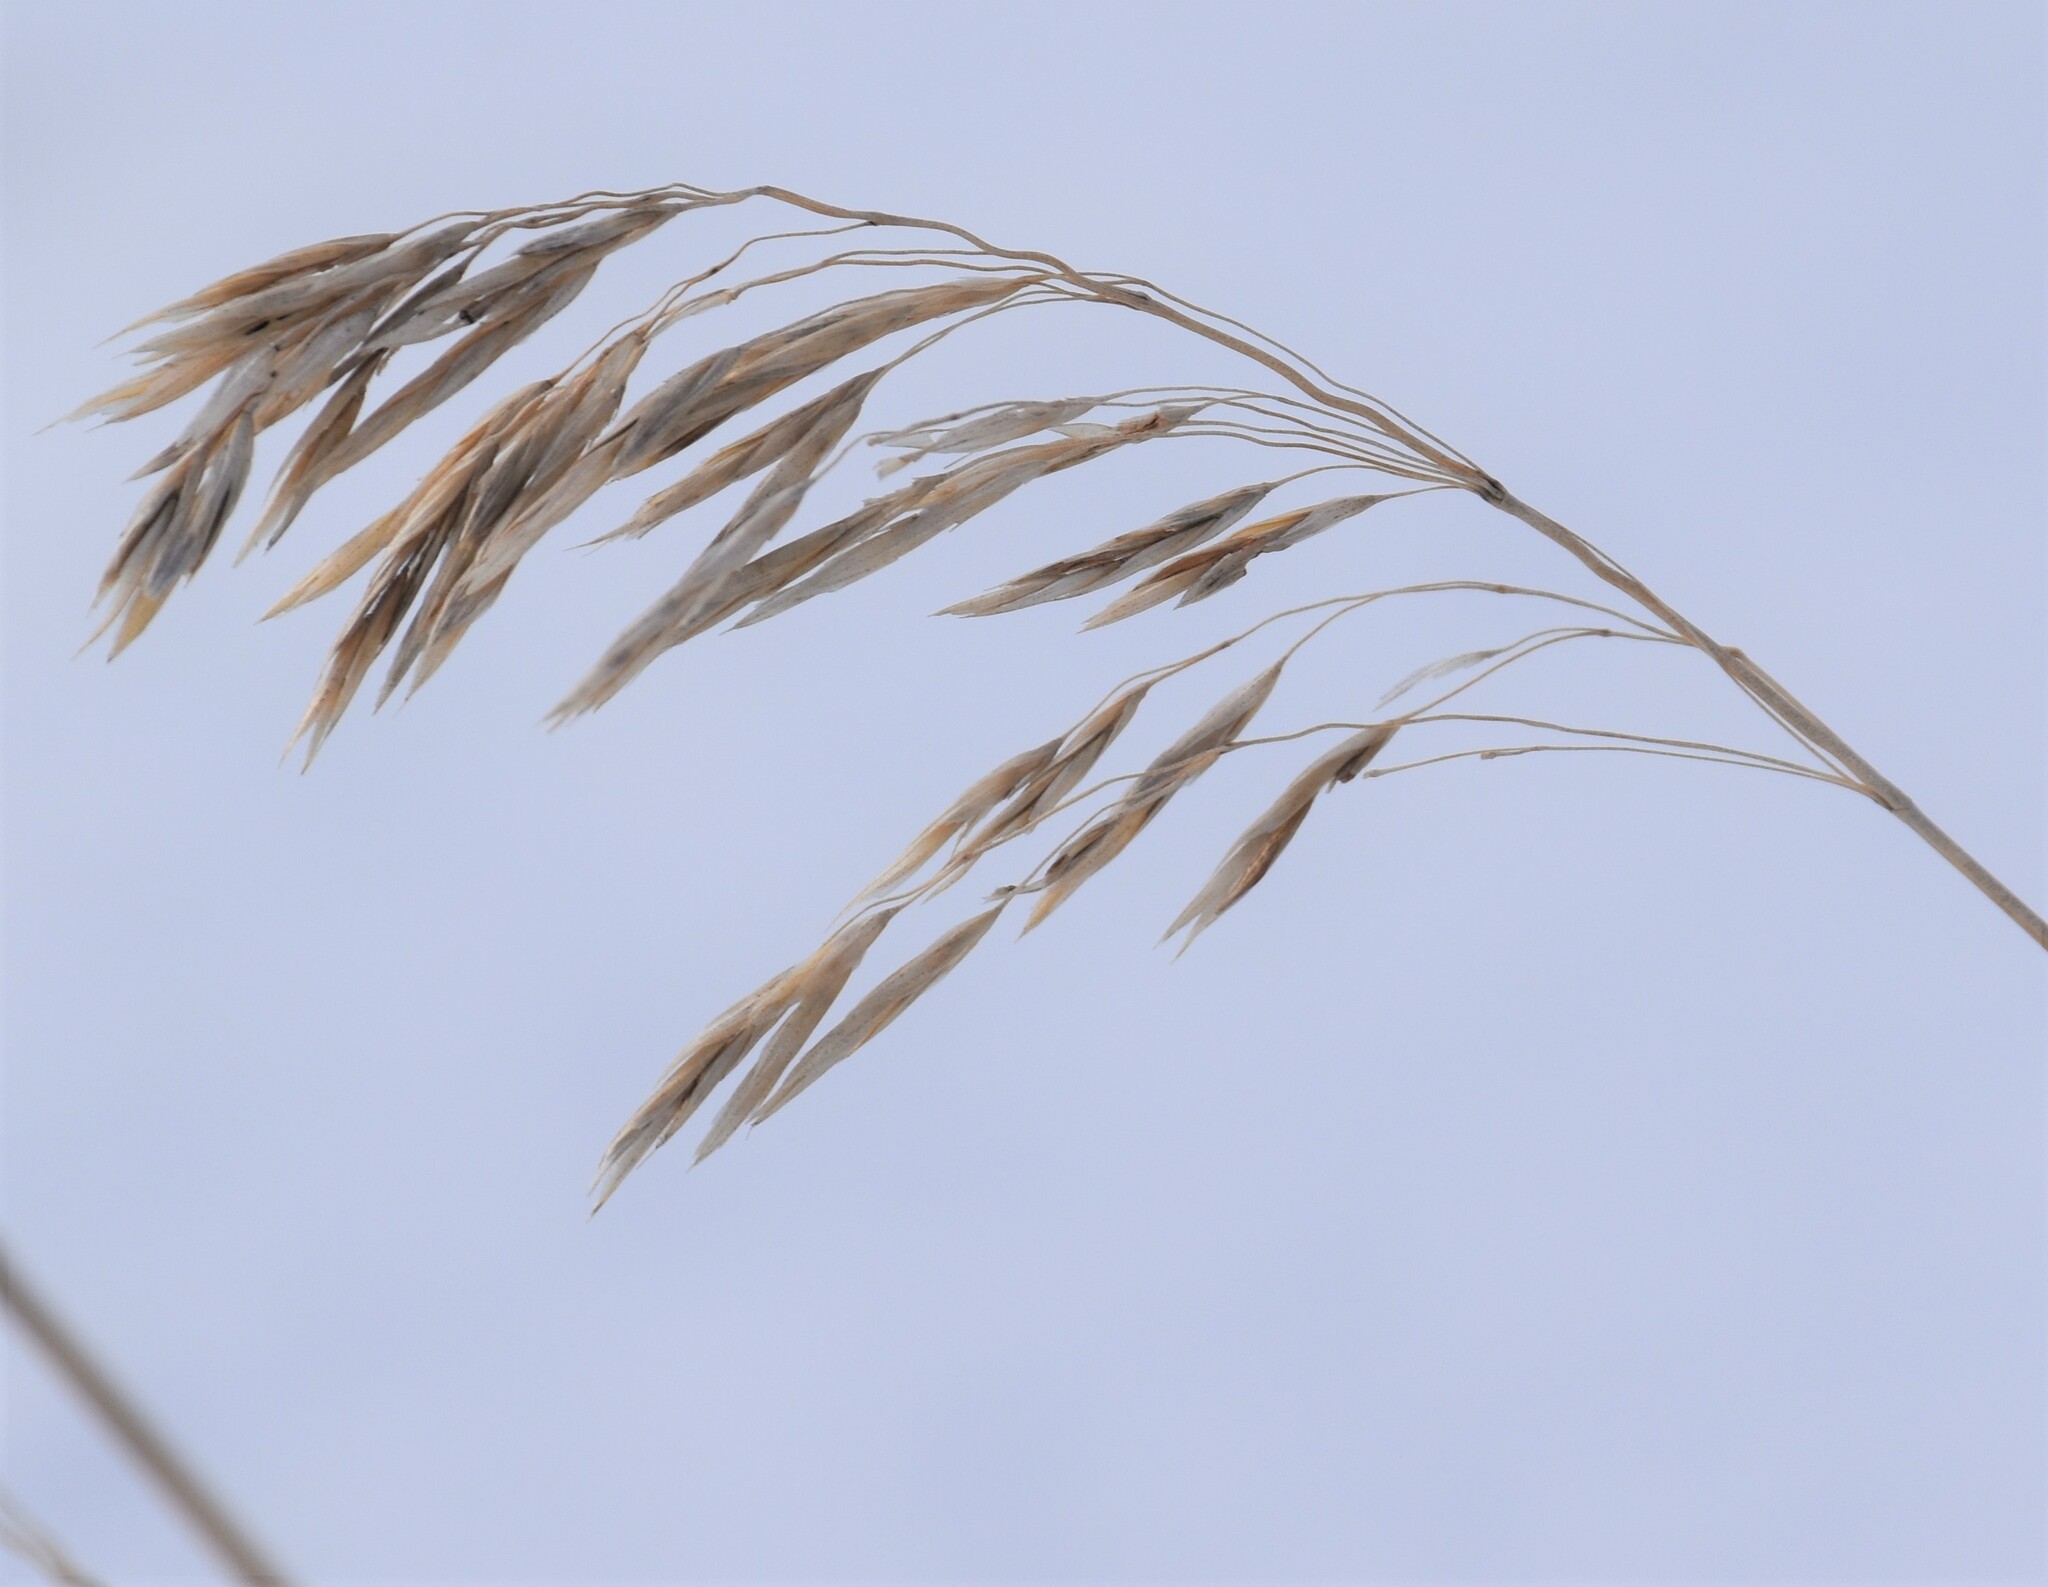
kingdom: Plantae
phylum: Tracheophyta
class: Liliopsida
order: Poales
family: Poaceae
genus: Bromus
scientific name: Bromus inermis
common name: Smooth brome
